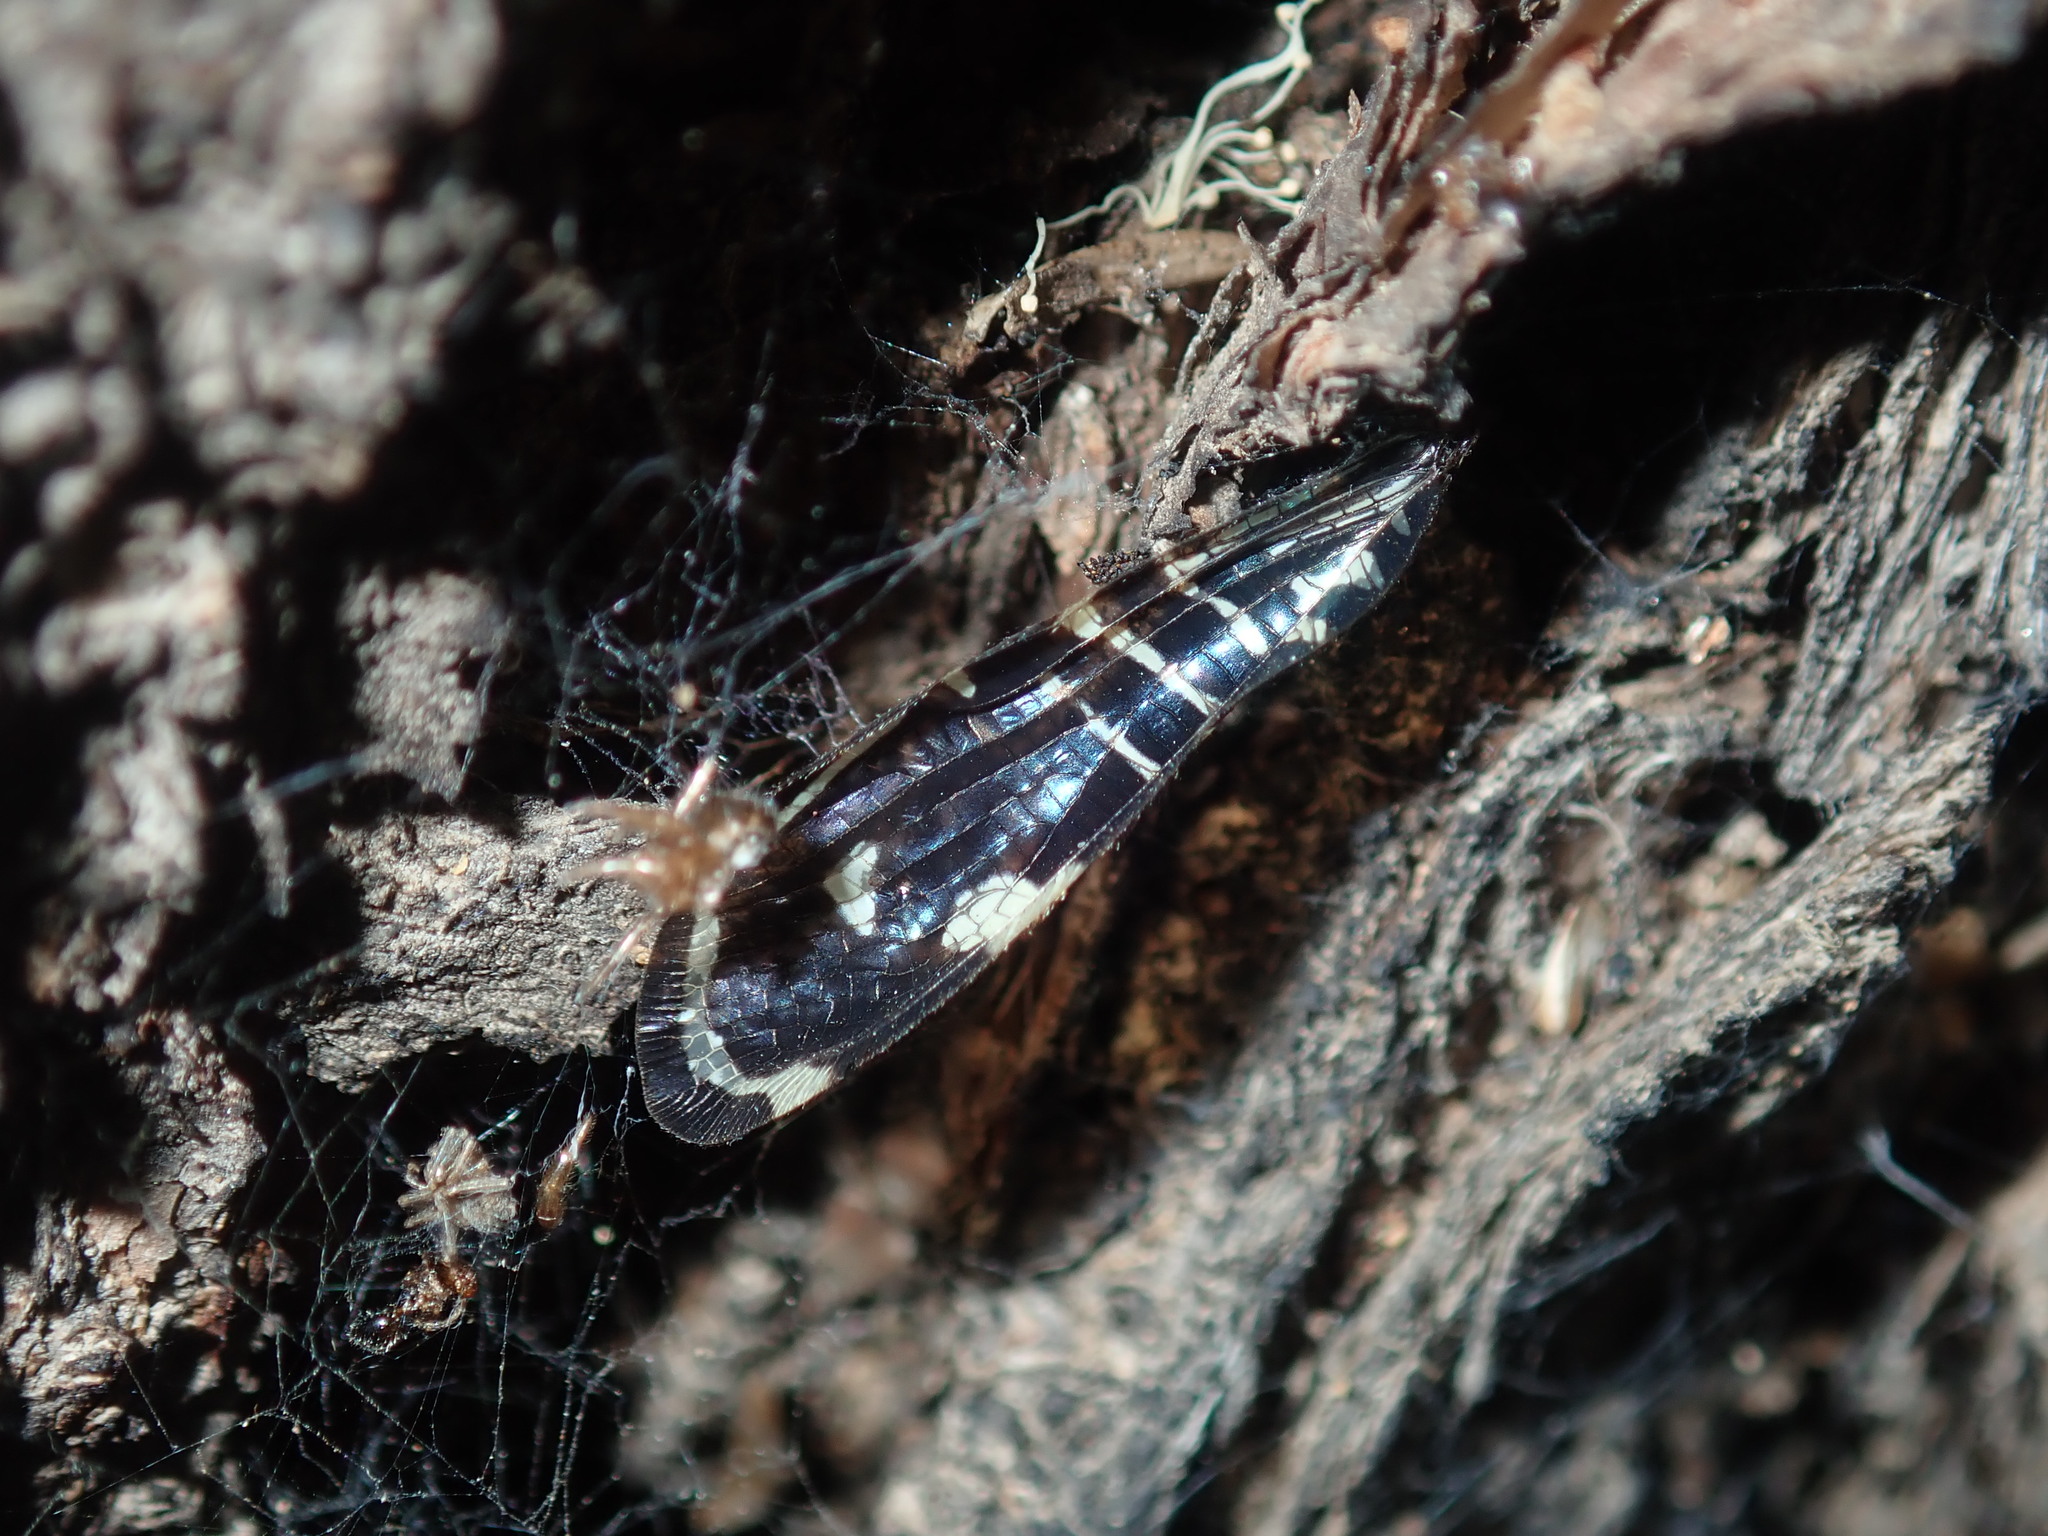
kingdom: Animalia
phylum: Arthropoda
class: Insecta
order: Neuroptera
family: Osmylidae
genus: Porismus
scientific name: Porismus strigatus
